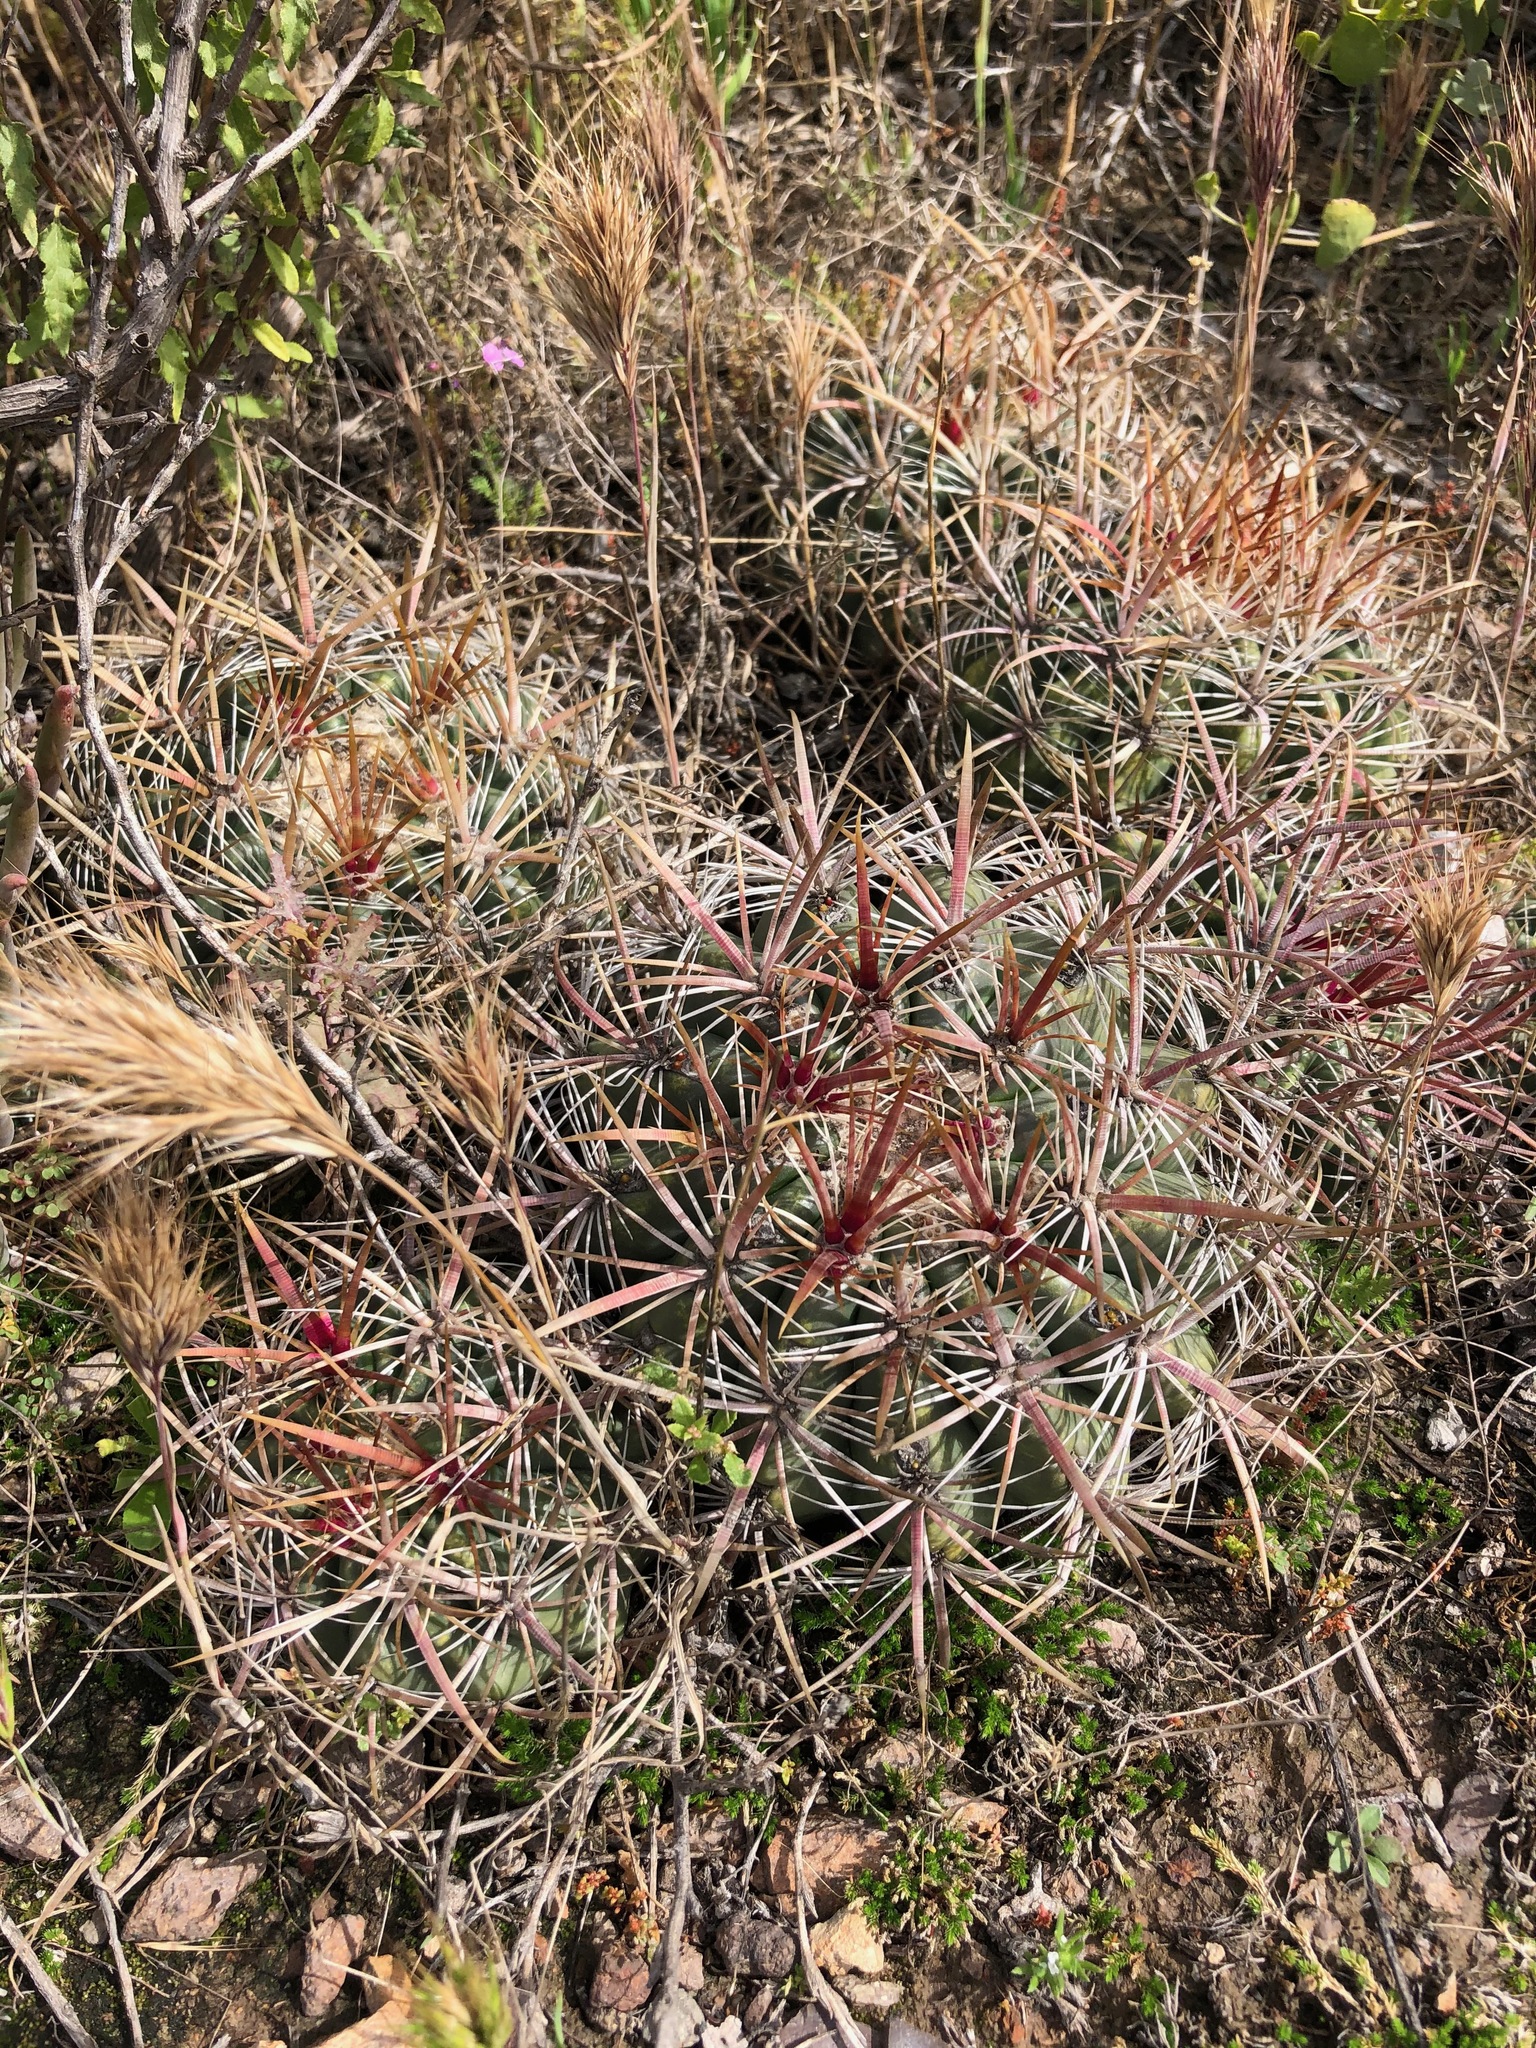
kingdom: Plantae
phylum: Tracheophyta
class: Magnoliopsida
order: Caryophyllales
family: Cactaceae
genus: Ferocactus
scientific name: Ferocactus viridescens
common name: San diego barrel cactus
